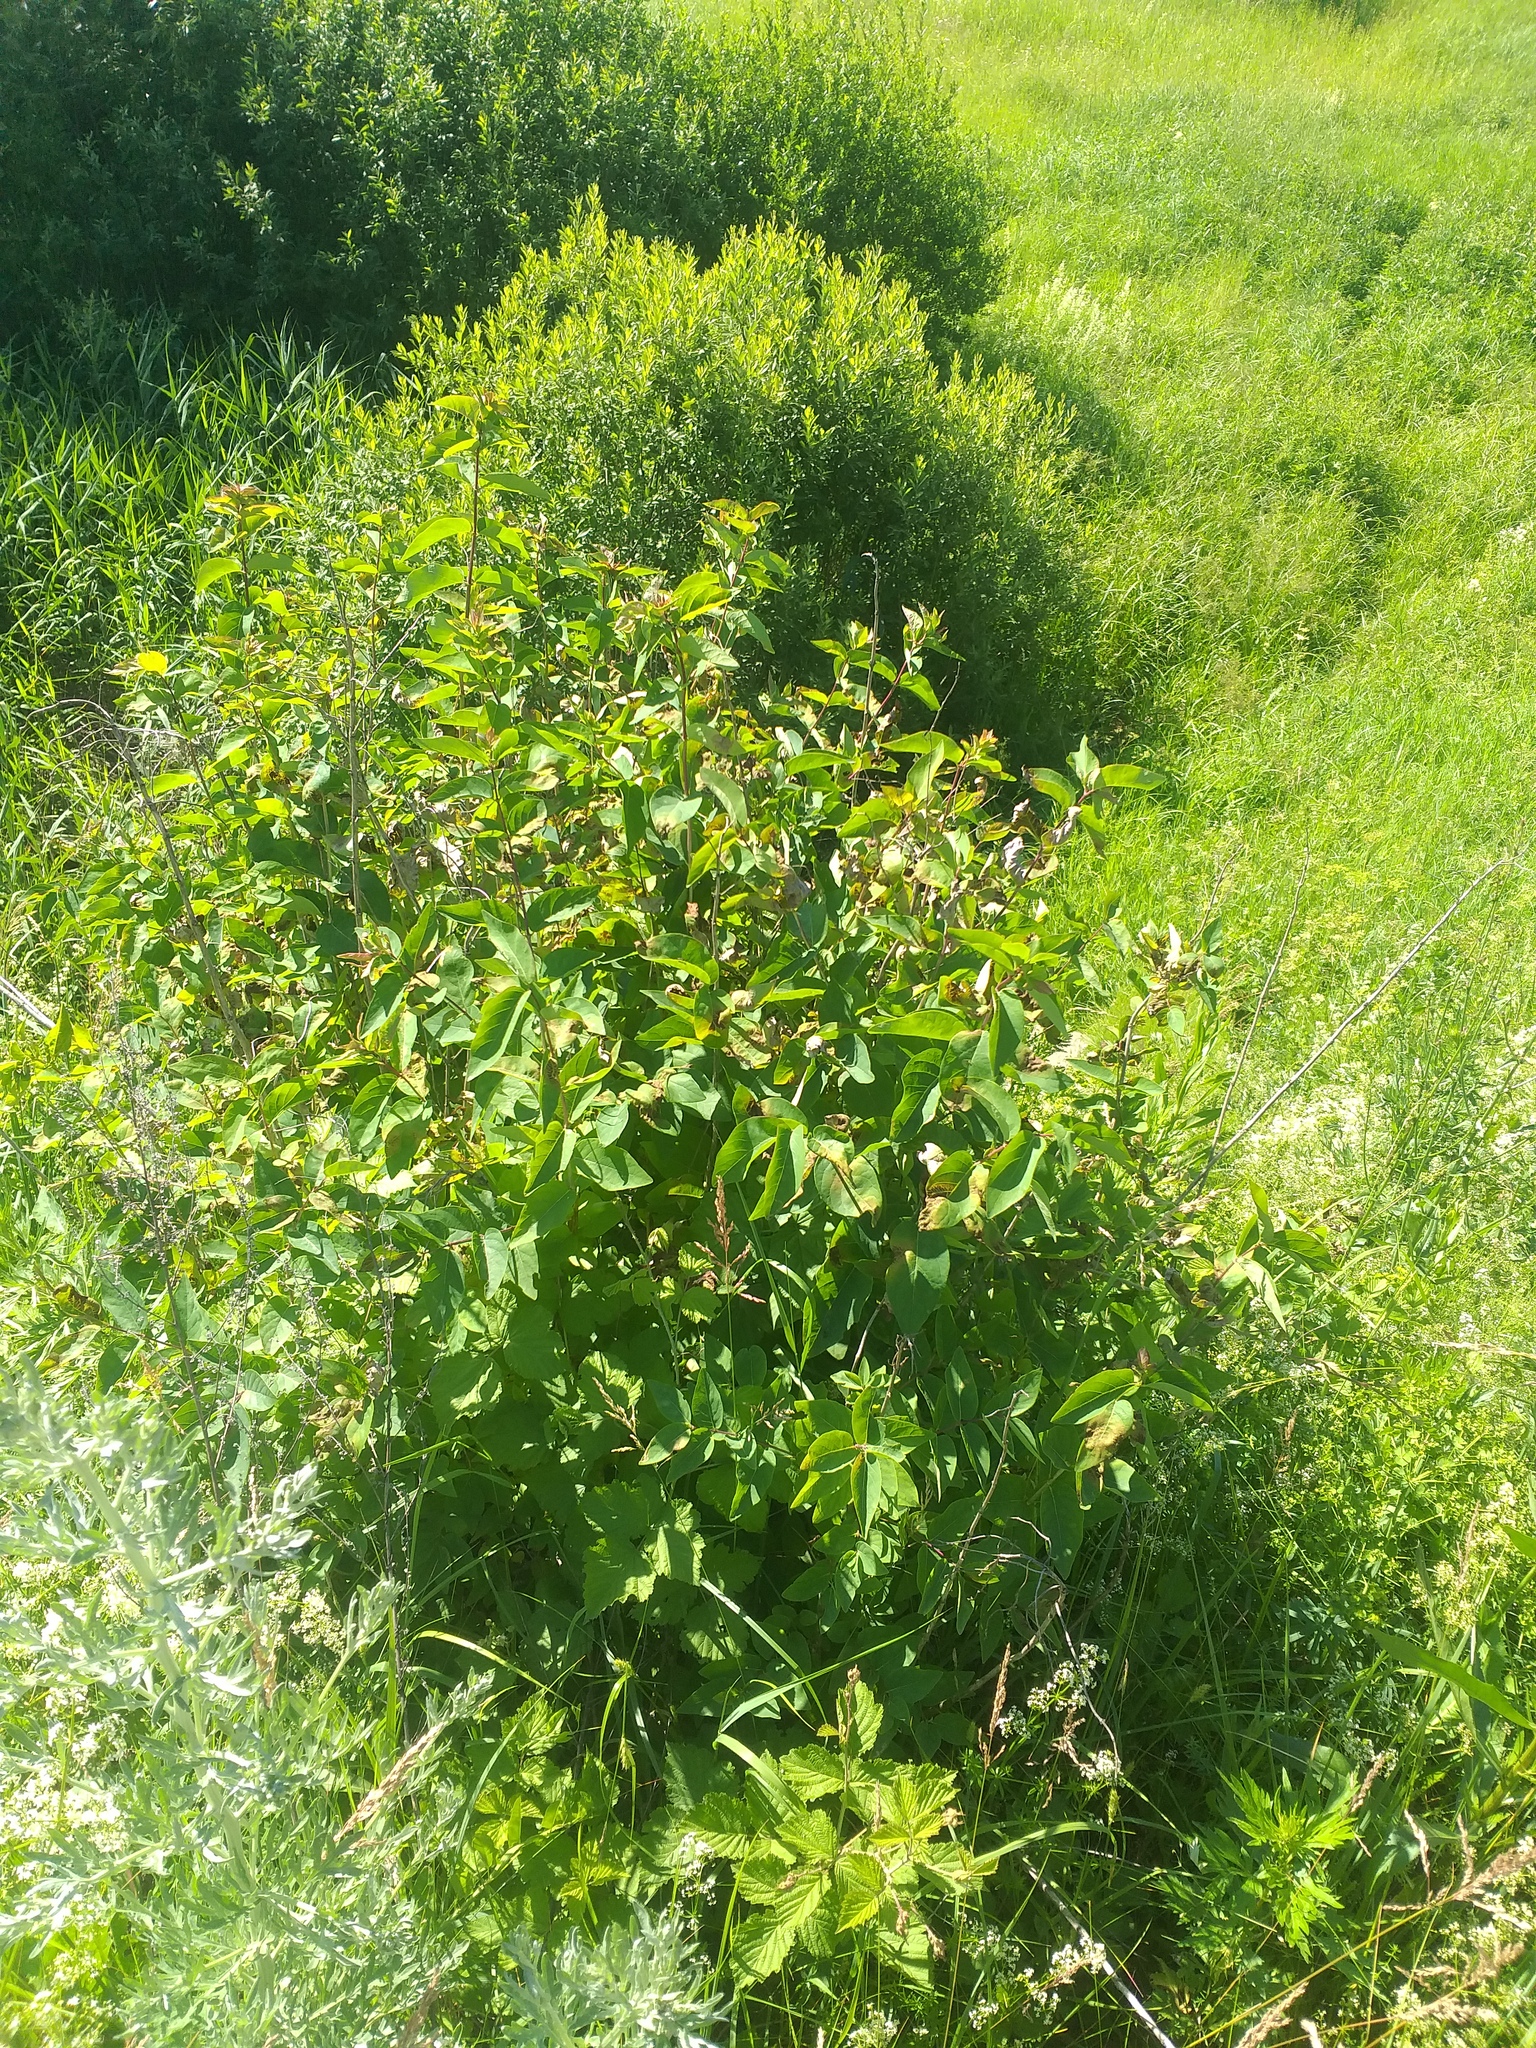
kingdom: Plantae
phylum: Tracheophyta
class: Magnoliopsida
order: Dipsacales
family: Caprifoliaceae
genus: Lonicera
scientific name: Lonicera tatarica
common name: Tatarian honeysuckle
